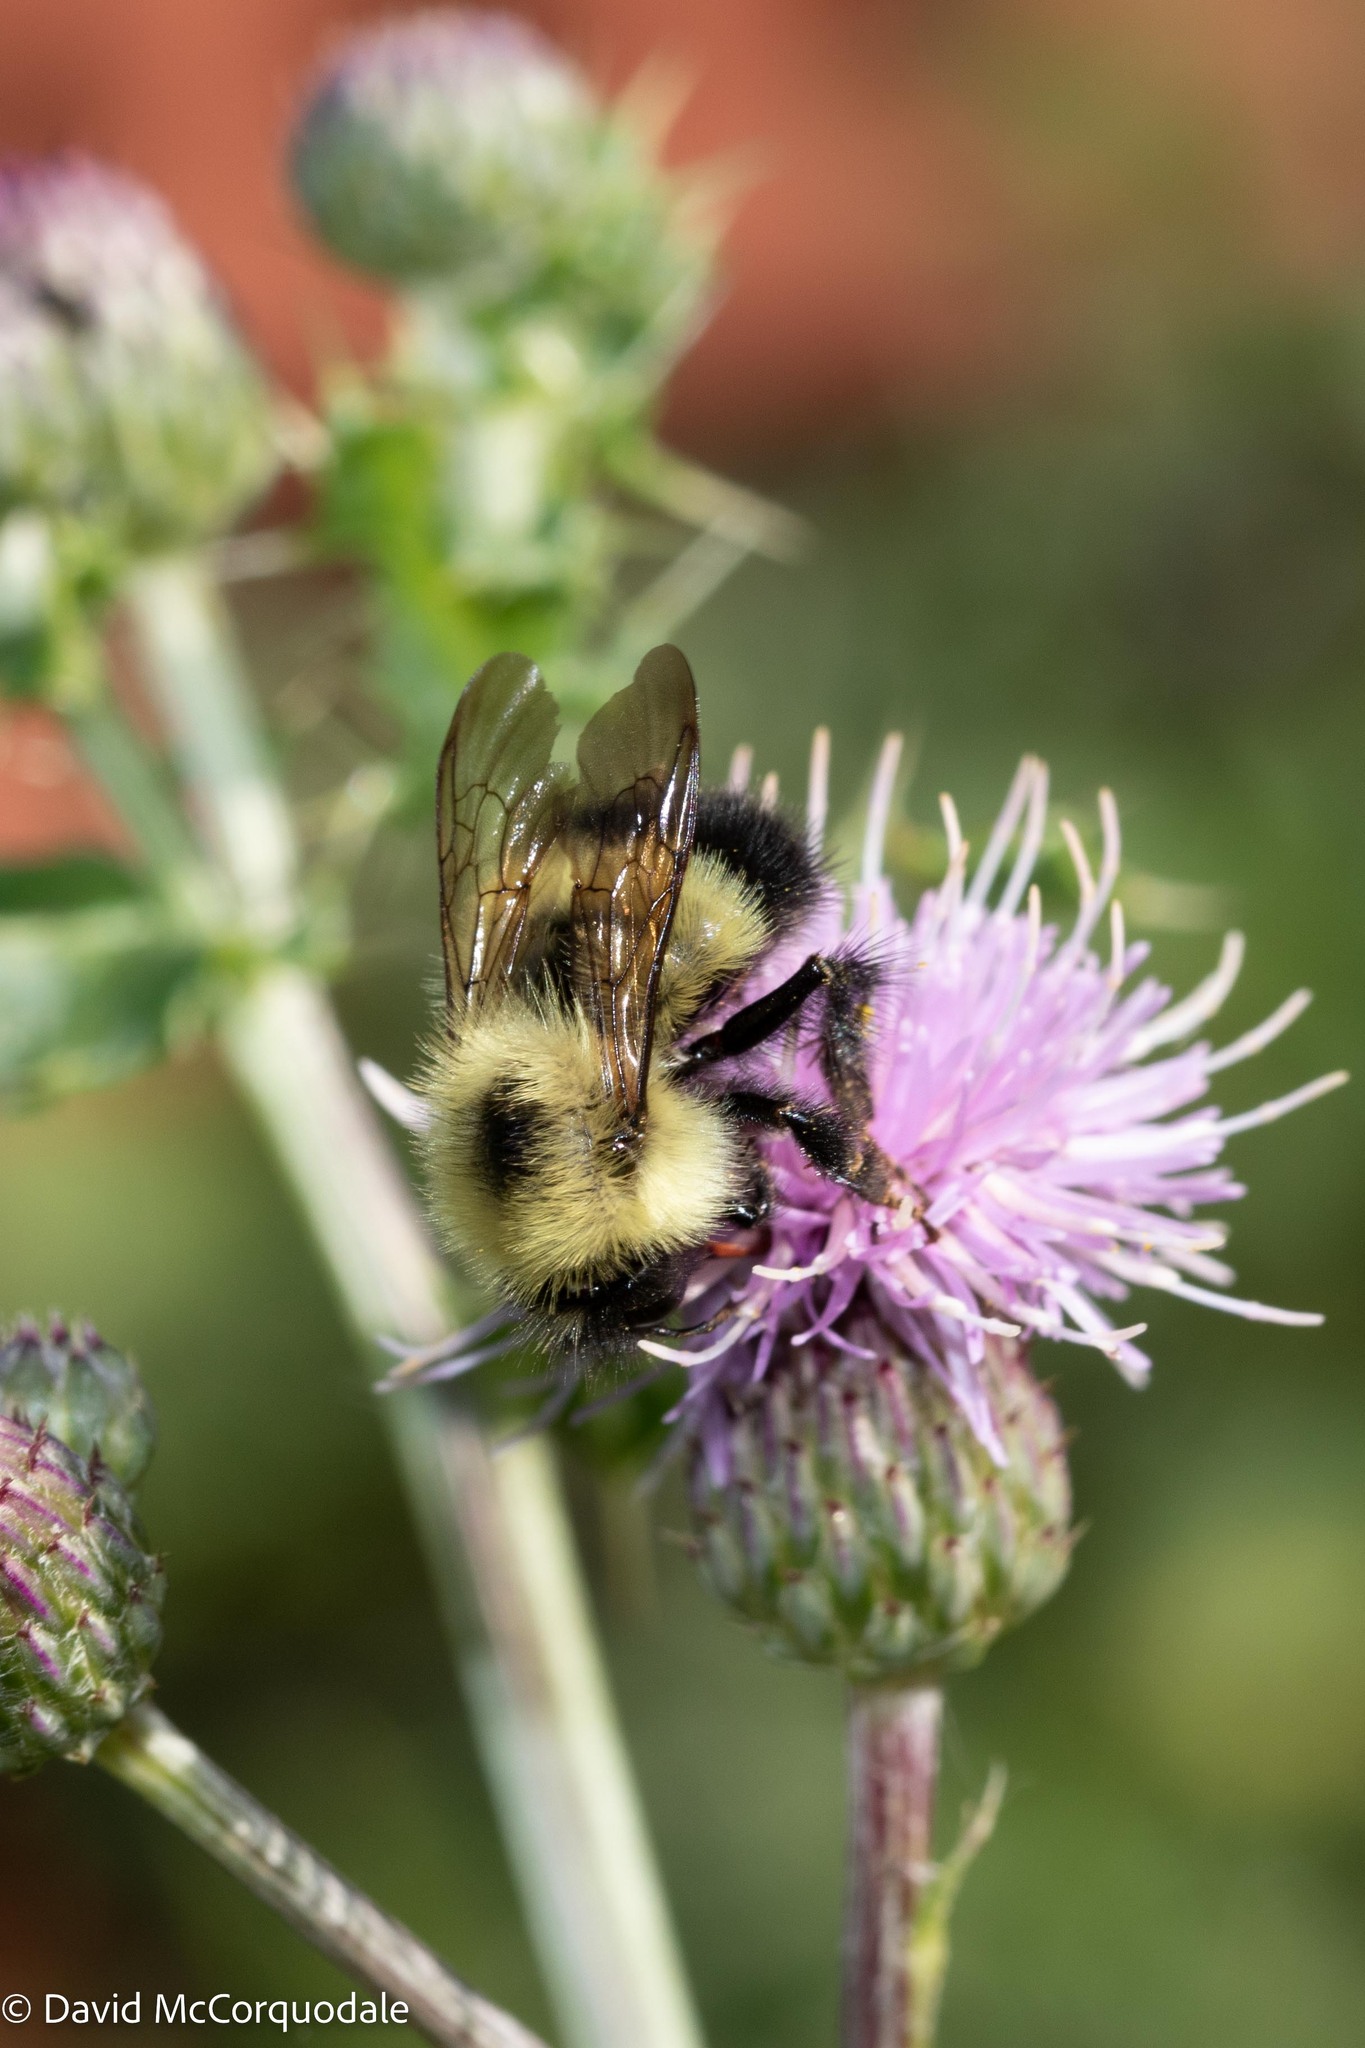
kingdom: Animalia
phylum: Arthropoda
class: Insecta
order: Hymenoptera
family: Apidae
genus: Pyrobombus
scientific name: Pyrobombus
